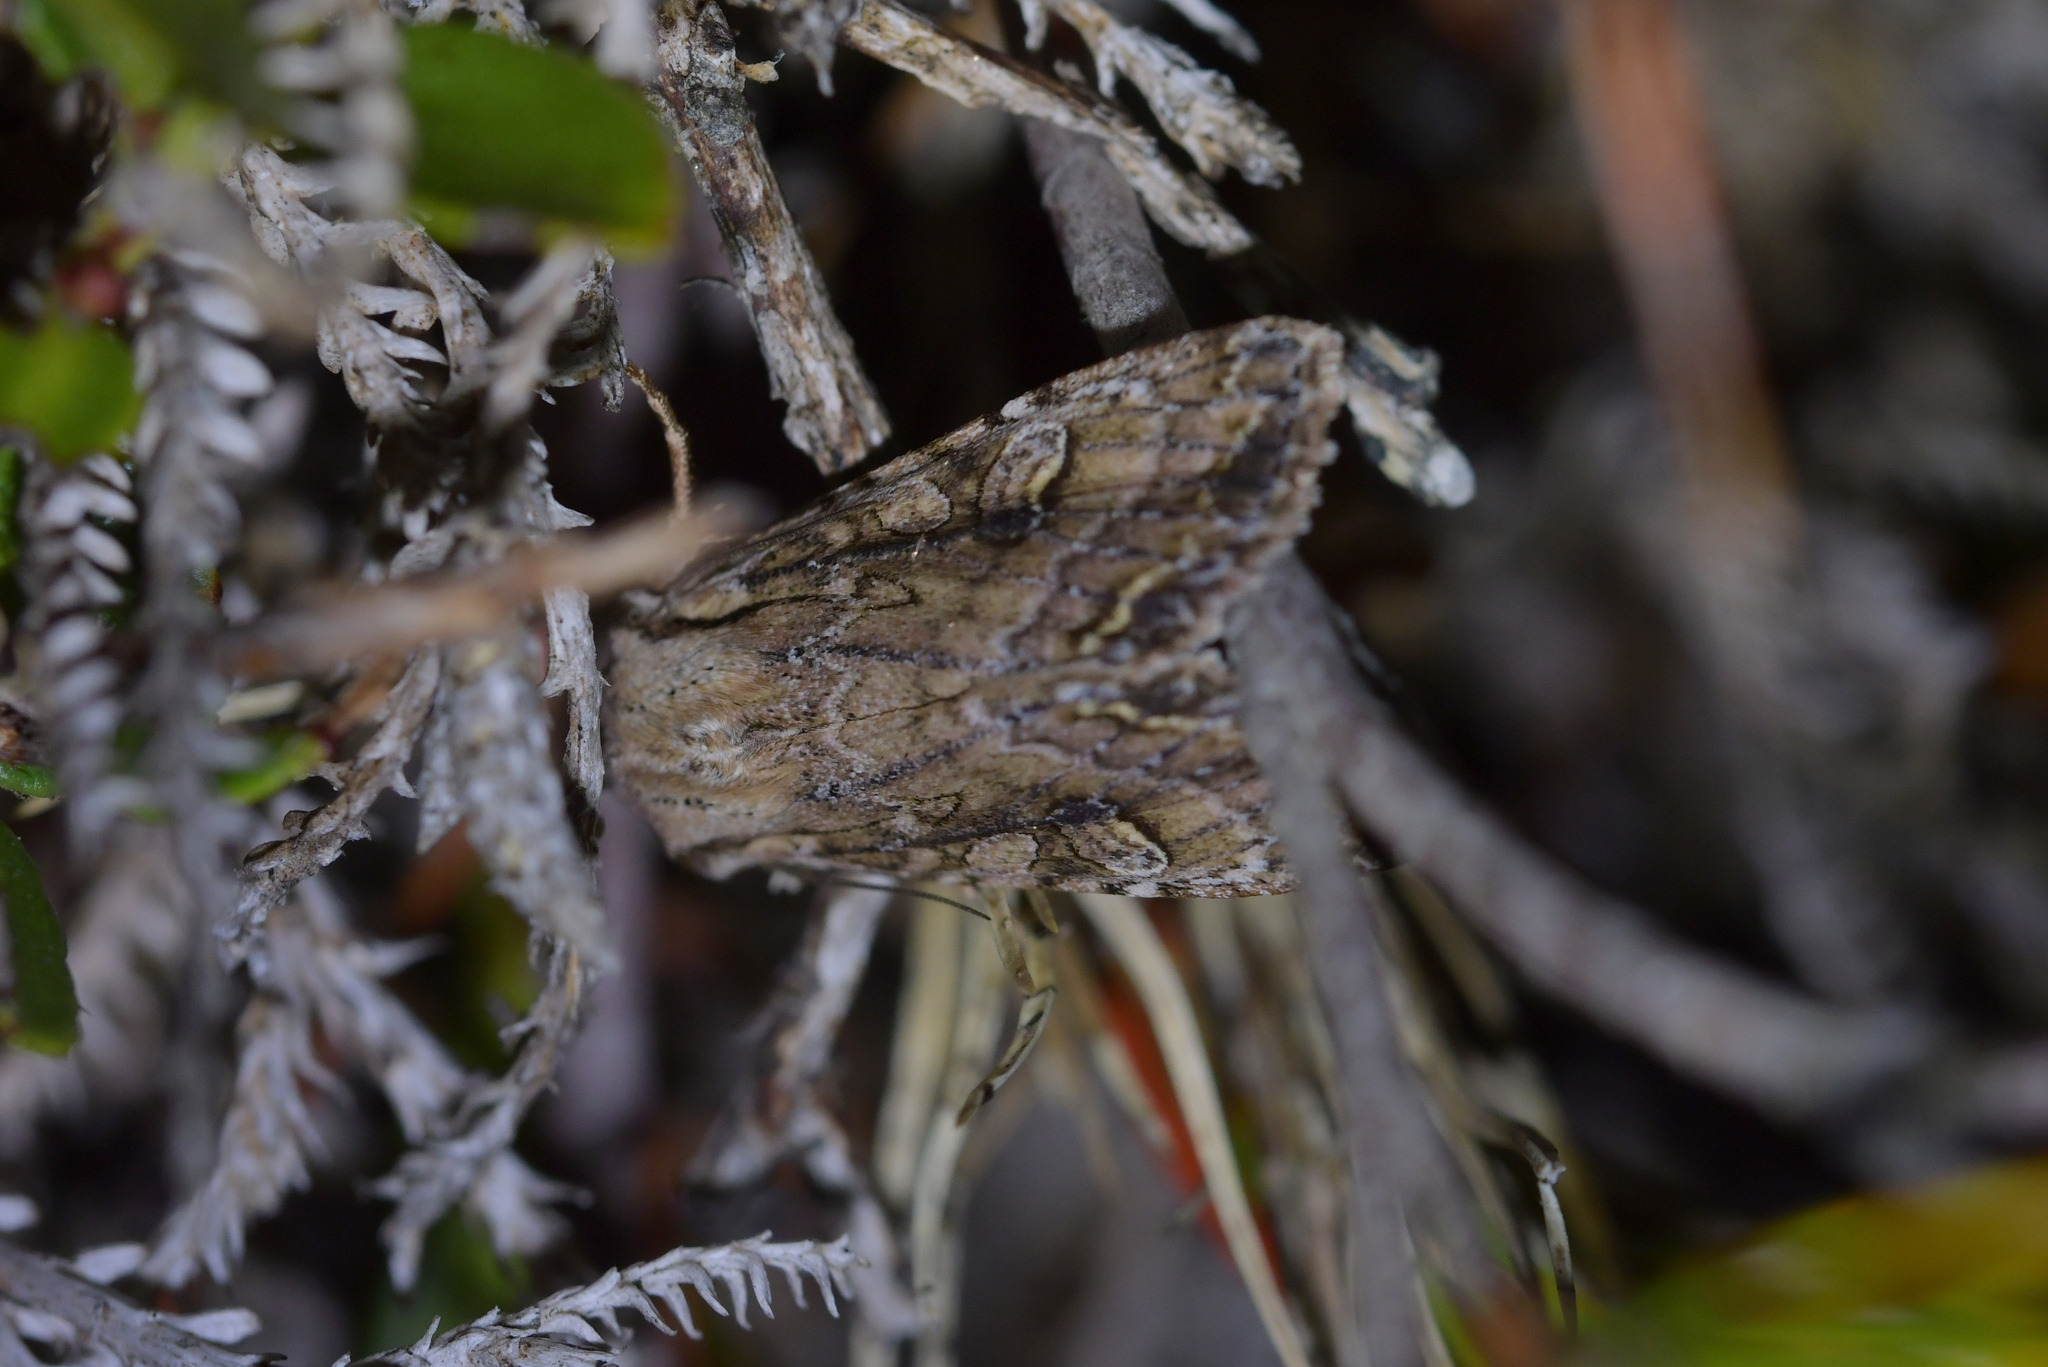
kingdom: Animalia
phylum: Arthropoda
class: Insecta
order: Lepidoptera
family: Noctuidae
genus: Ichneutica
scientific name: Ichneutica lindsayorum
